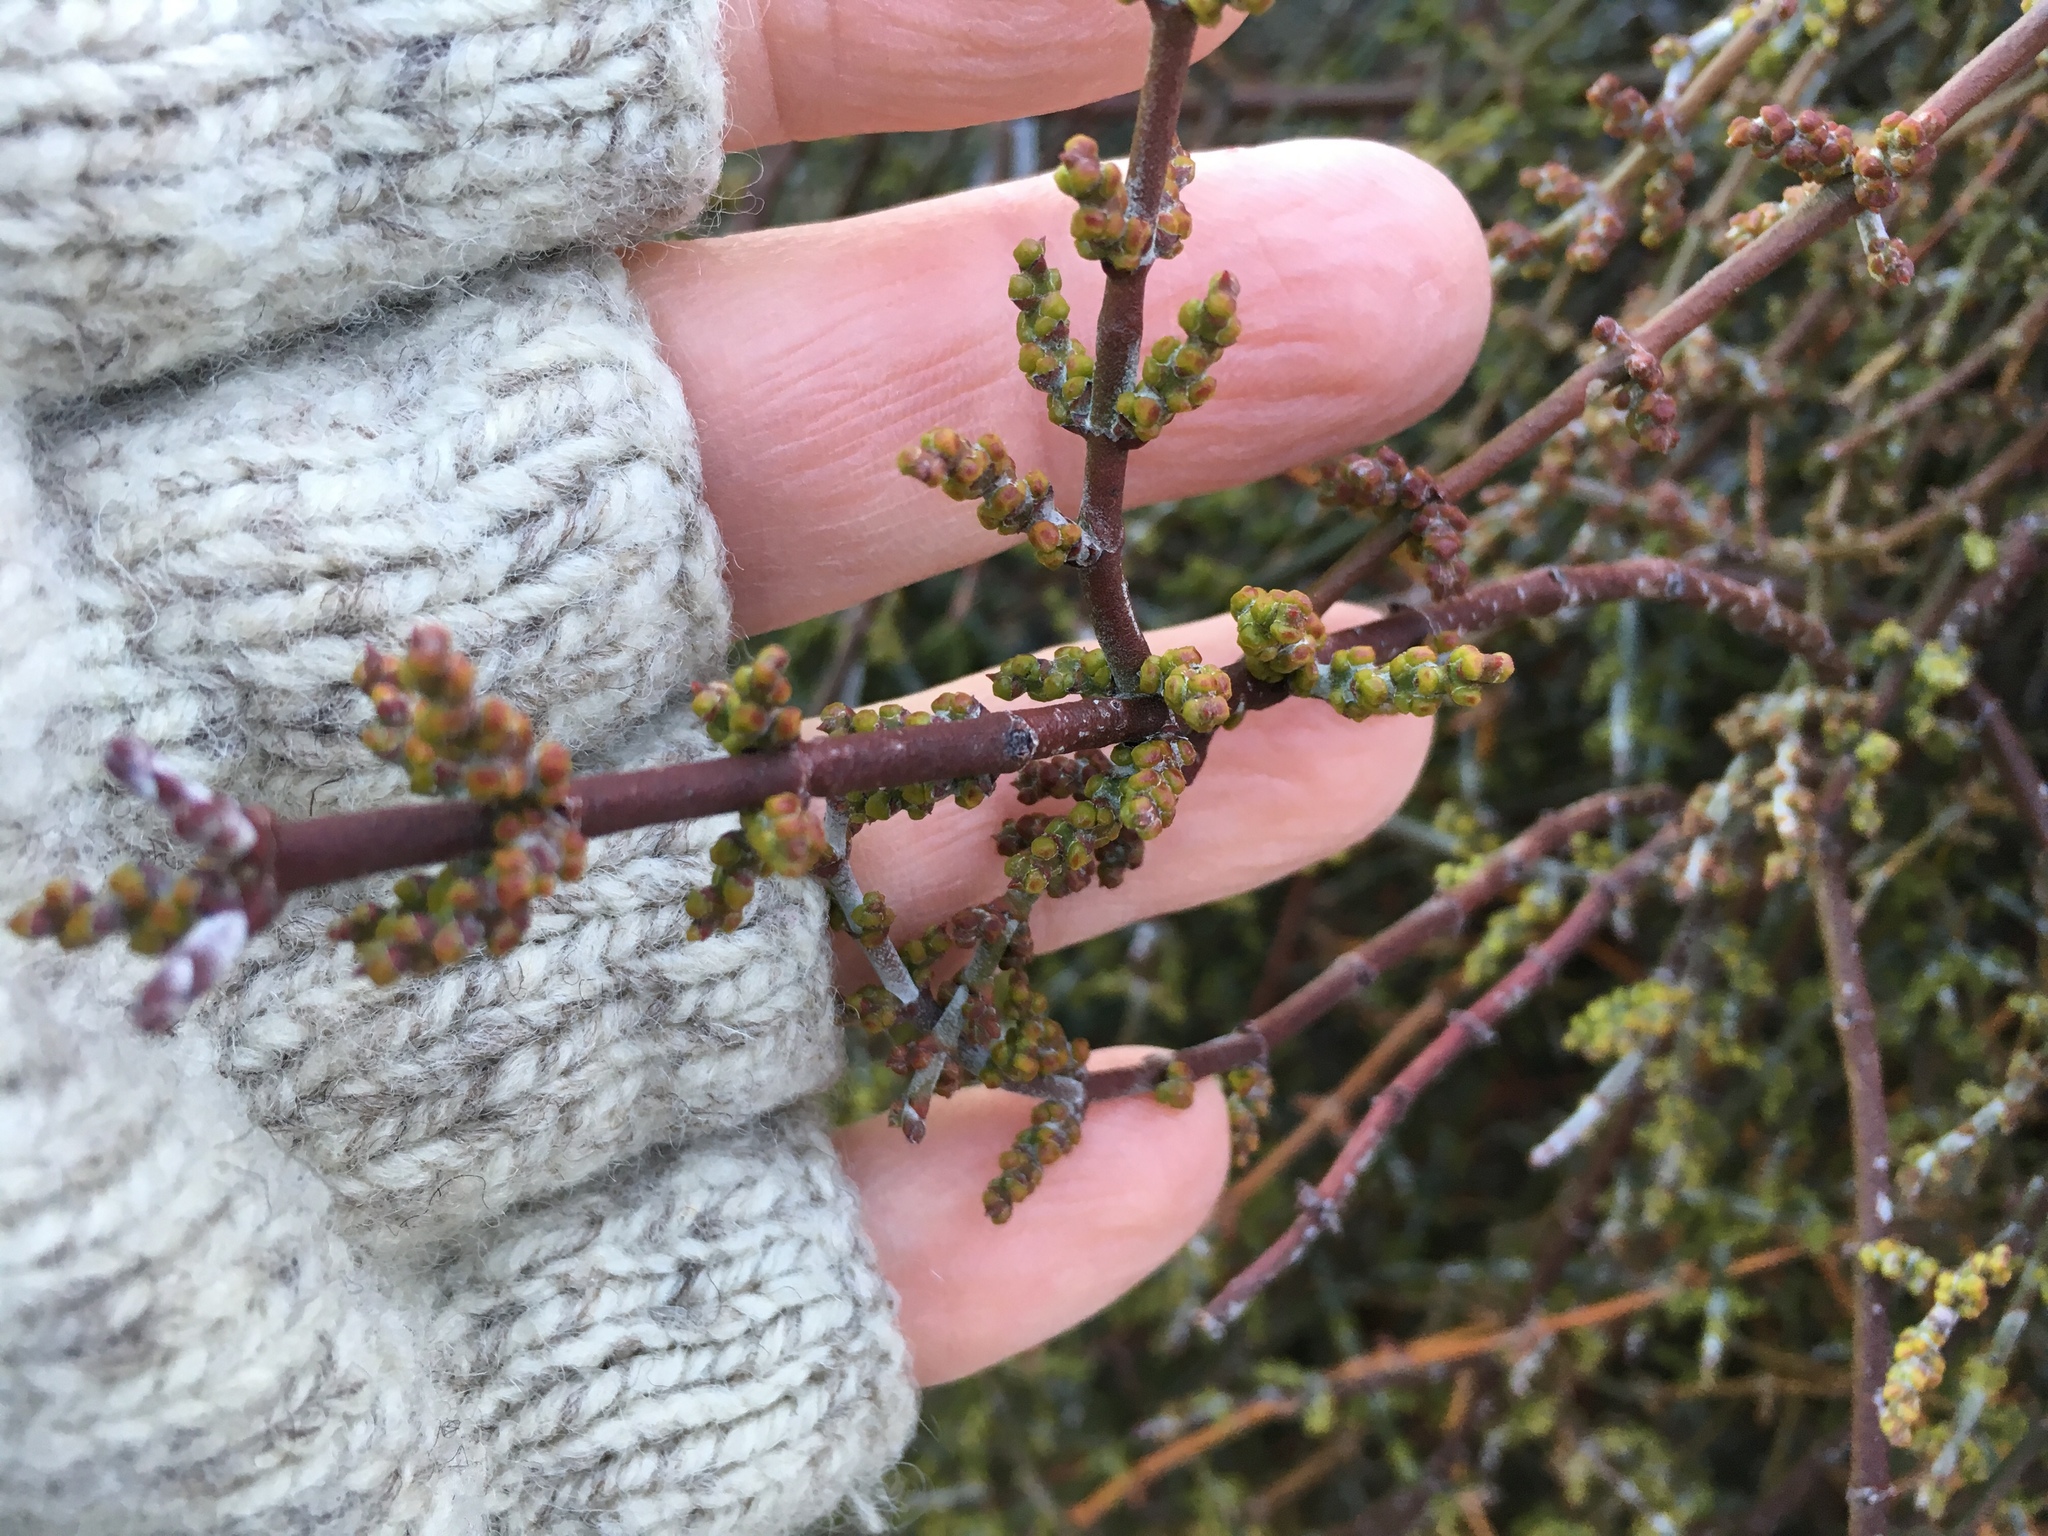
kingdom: Plantae
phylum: Tracheophyta
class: Magnoliopsida
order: Santalales
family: Viscaceae
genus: Phoradendron
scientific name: Phoradendron californicum
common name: Acacia mistletoe
